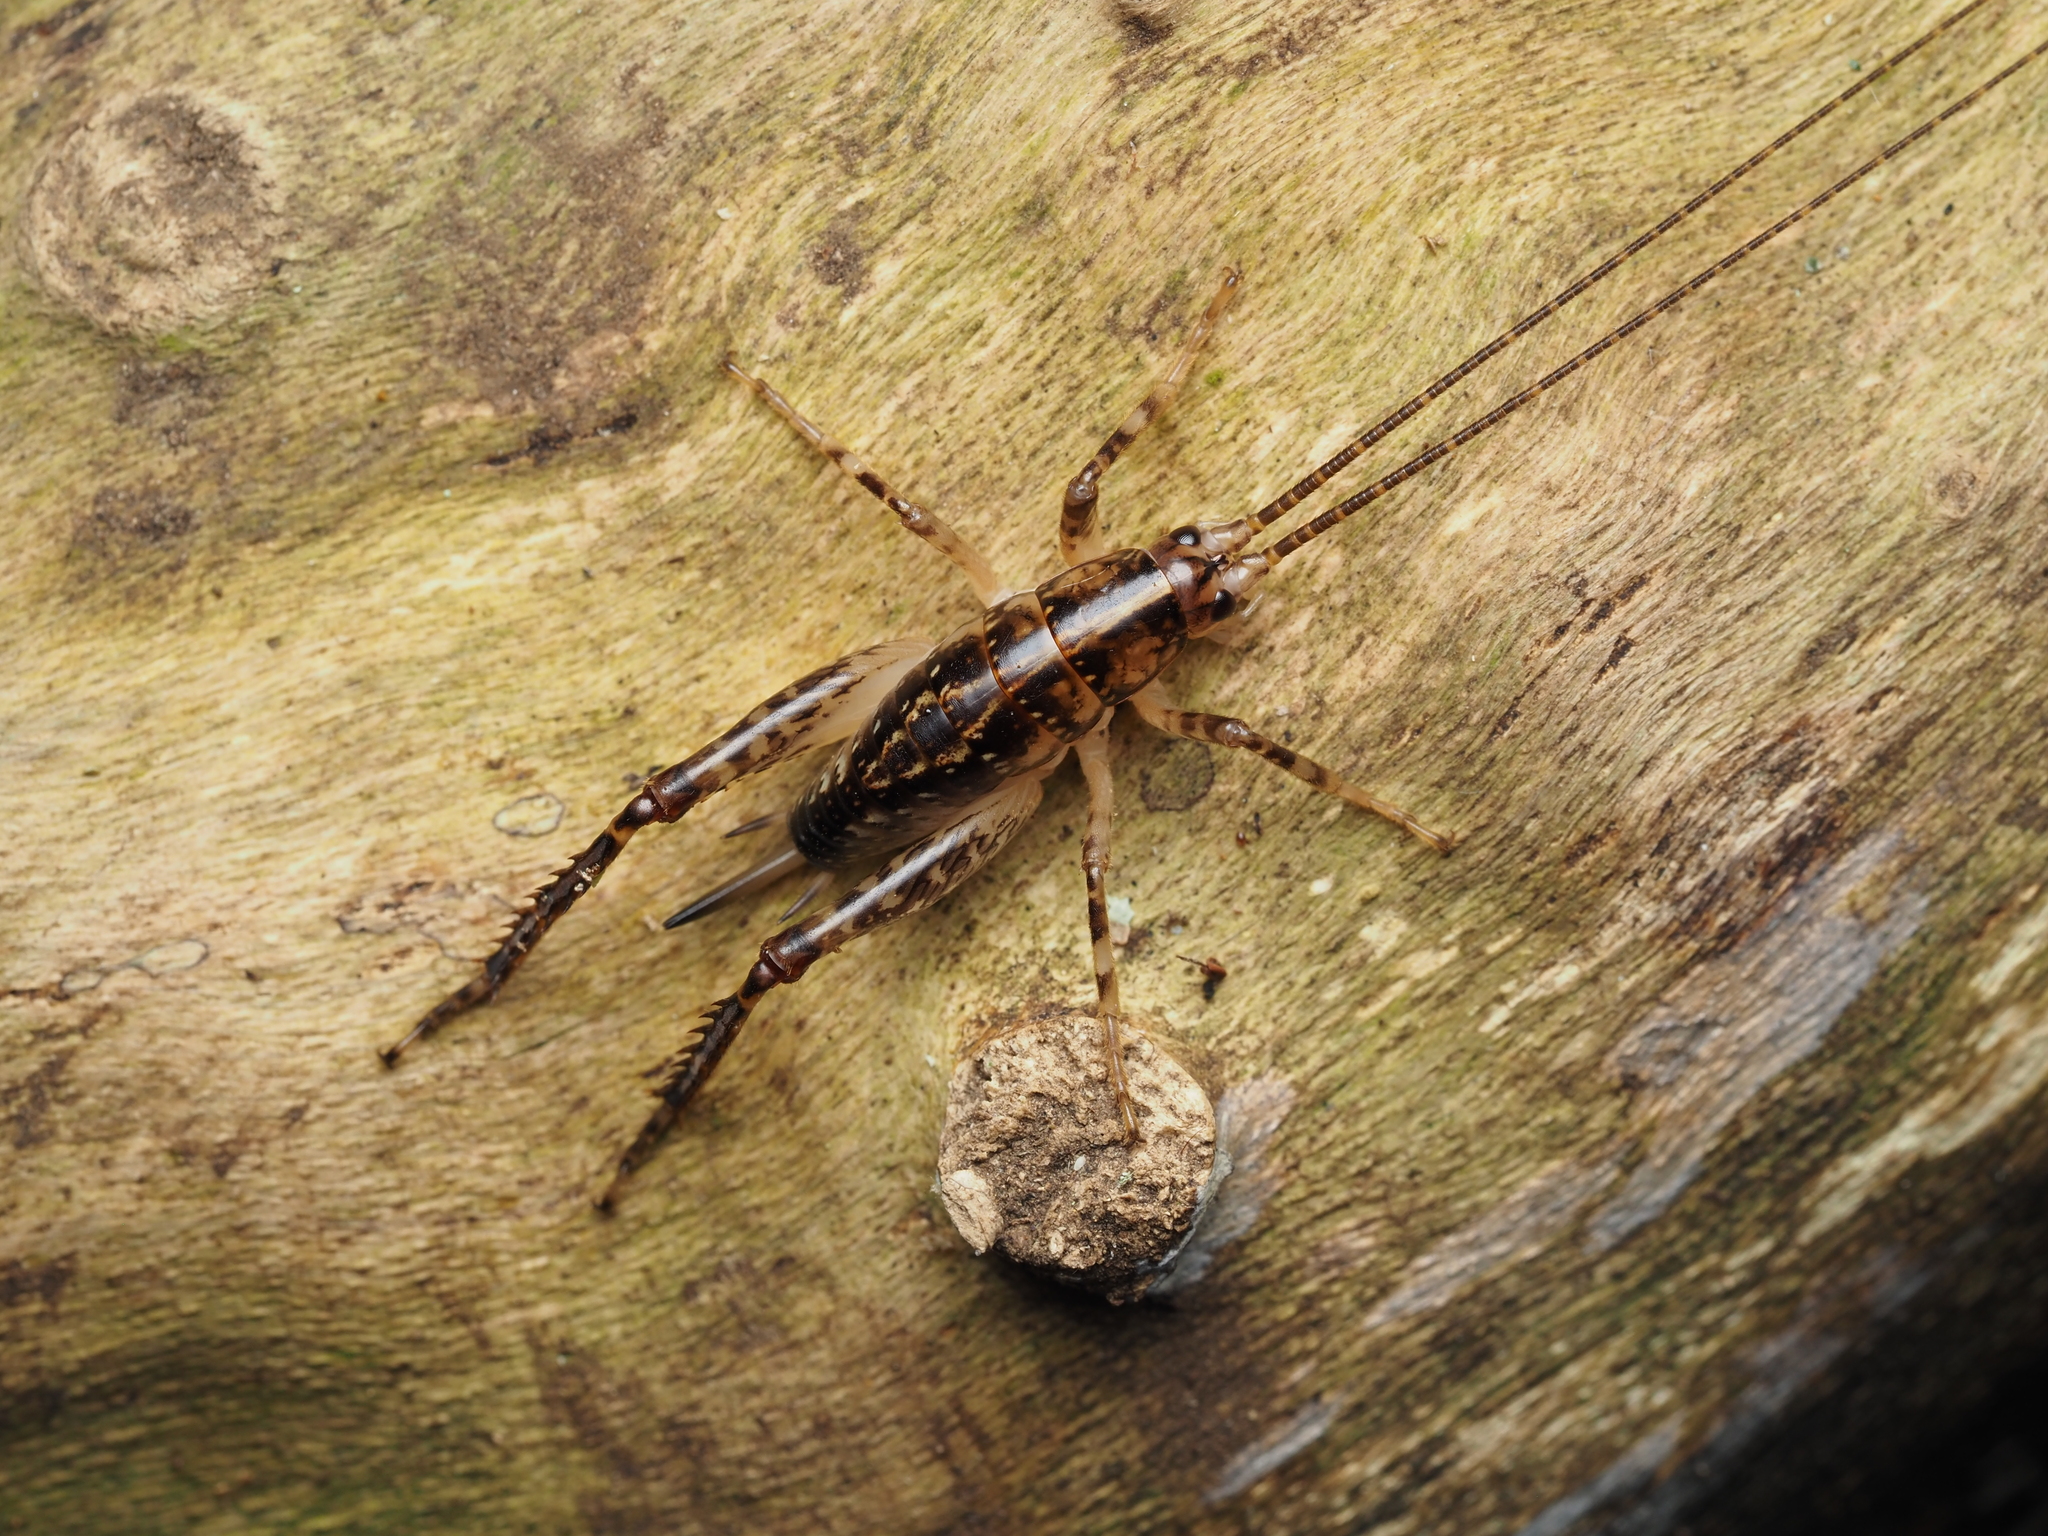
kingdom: Animalia
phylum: Arthropoda
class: Insecta
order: Orthoptera
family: Rhaphidophoridae
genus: Talitropsis
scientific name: Talitropsis sedilloti
